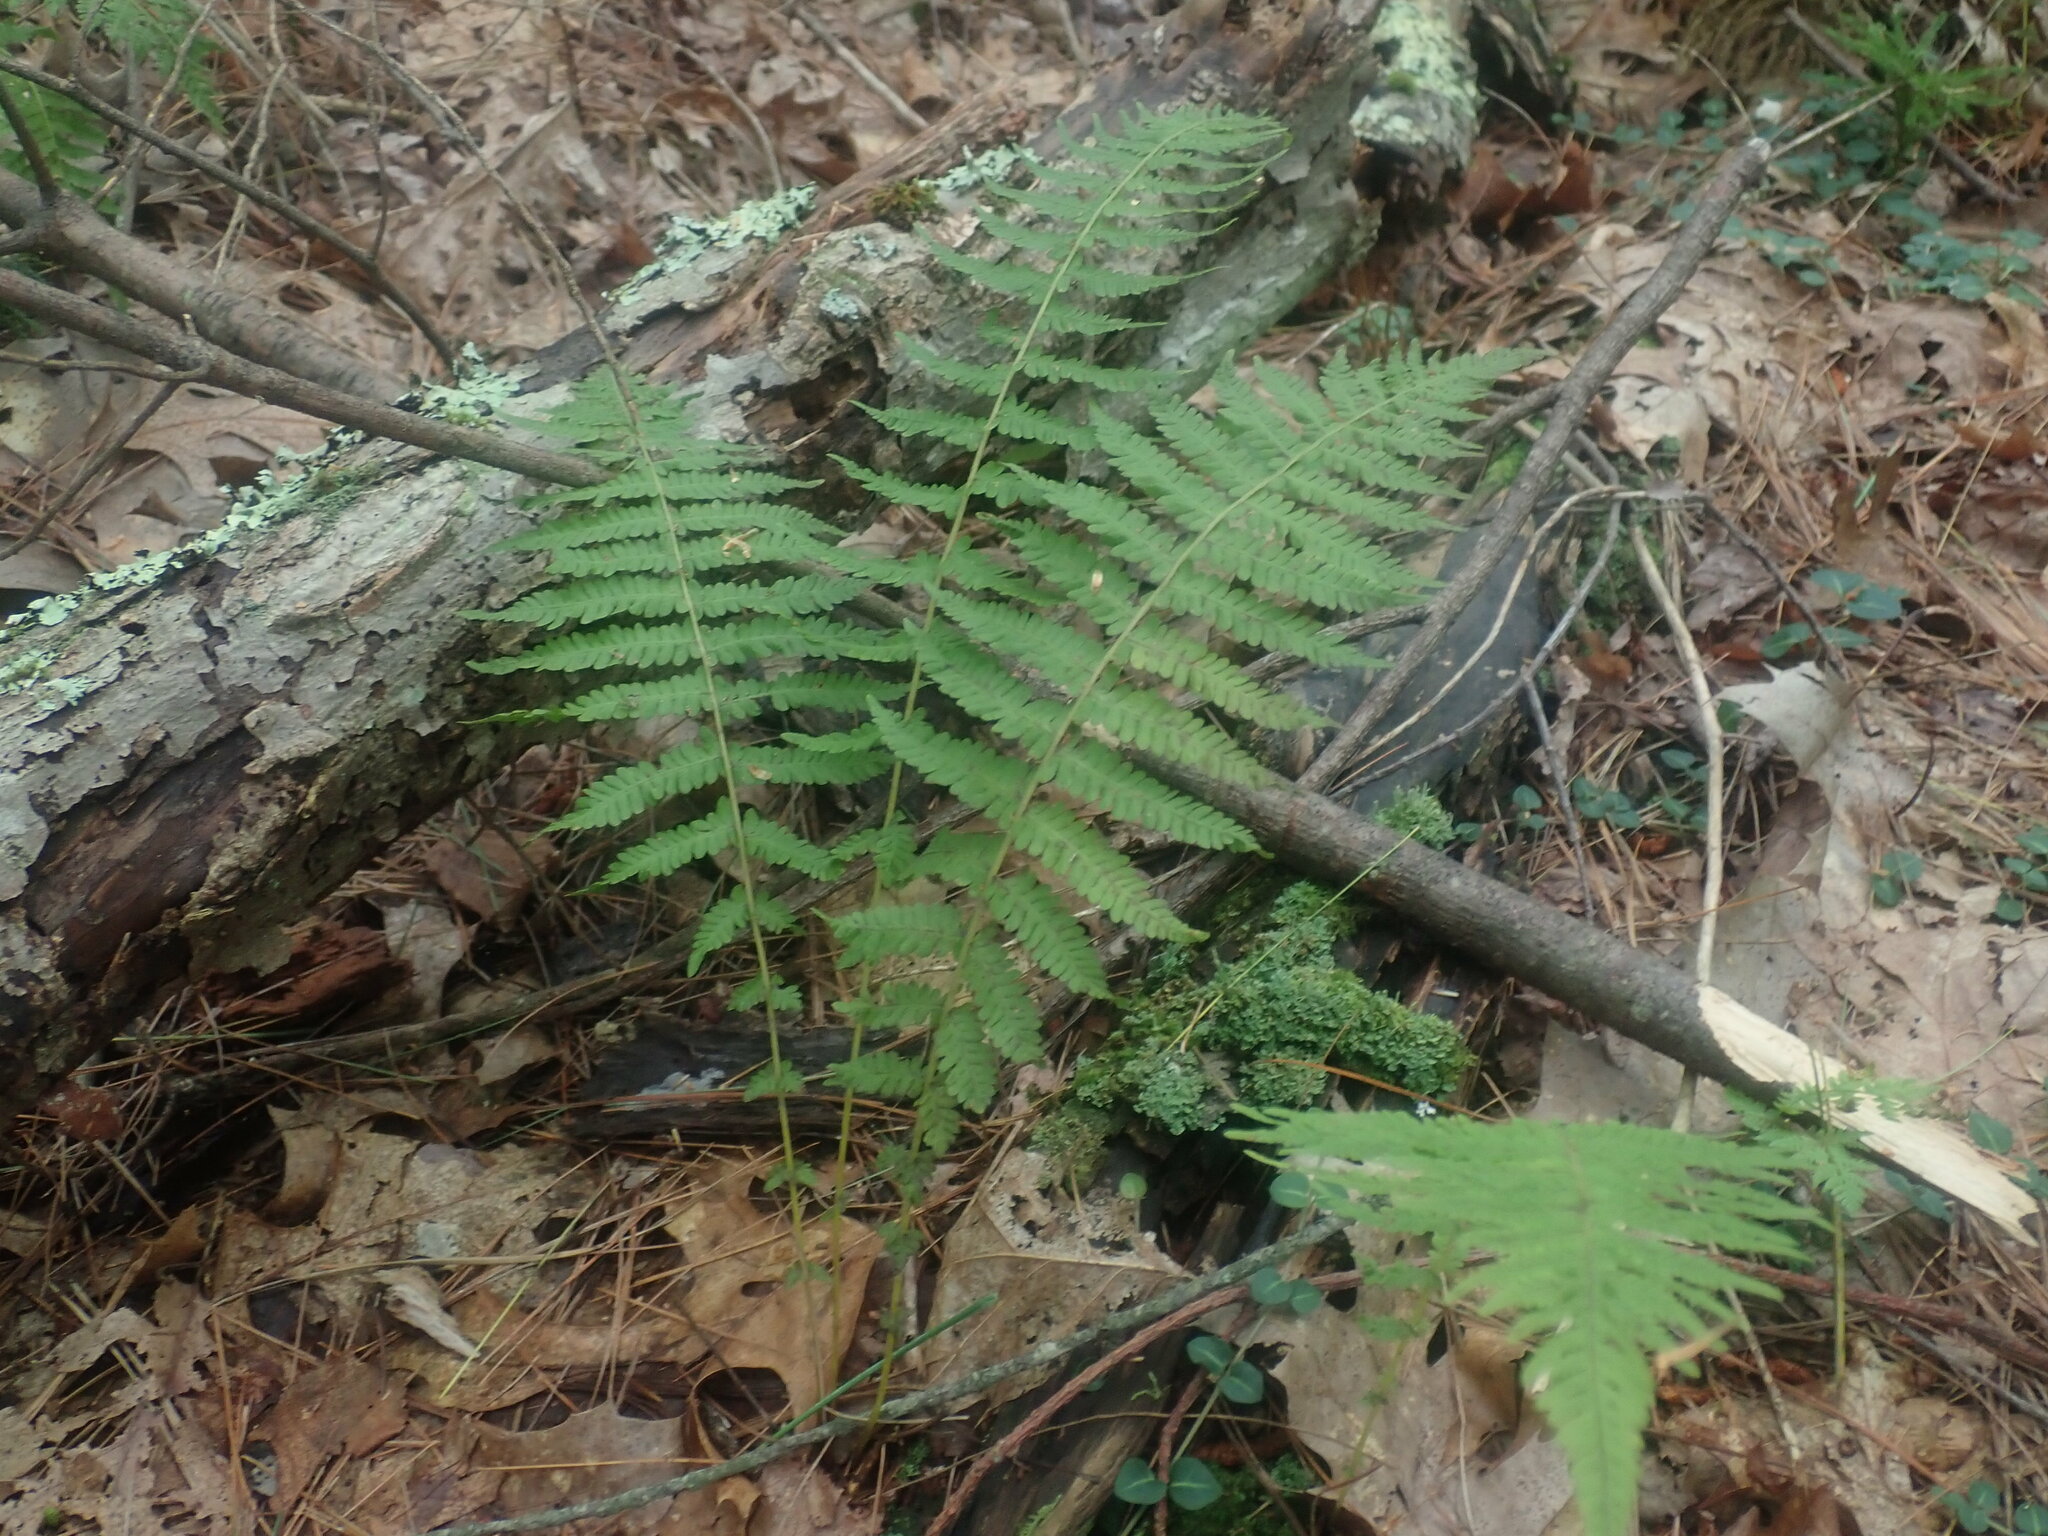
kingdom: Plantae
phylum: Tracheophyta
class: Polypodiopsida
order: Polypodiales
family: Thelypteridaceae
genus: Amauropelta
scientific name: Amauropelta noveboracensis
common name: New york fern
